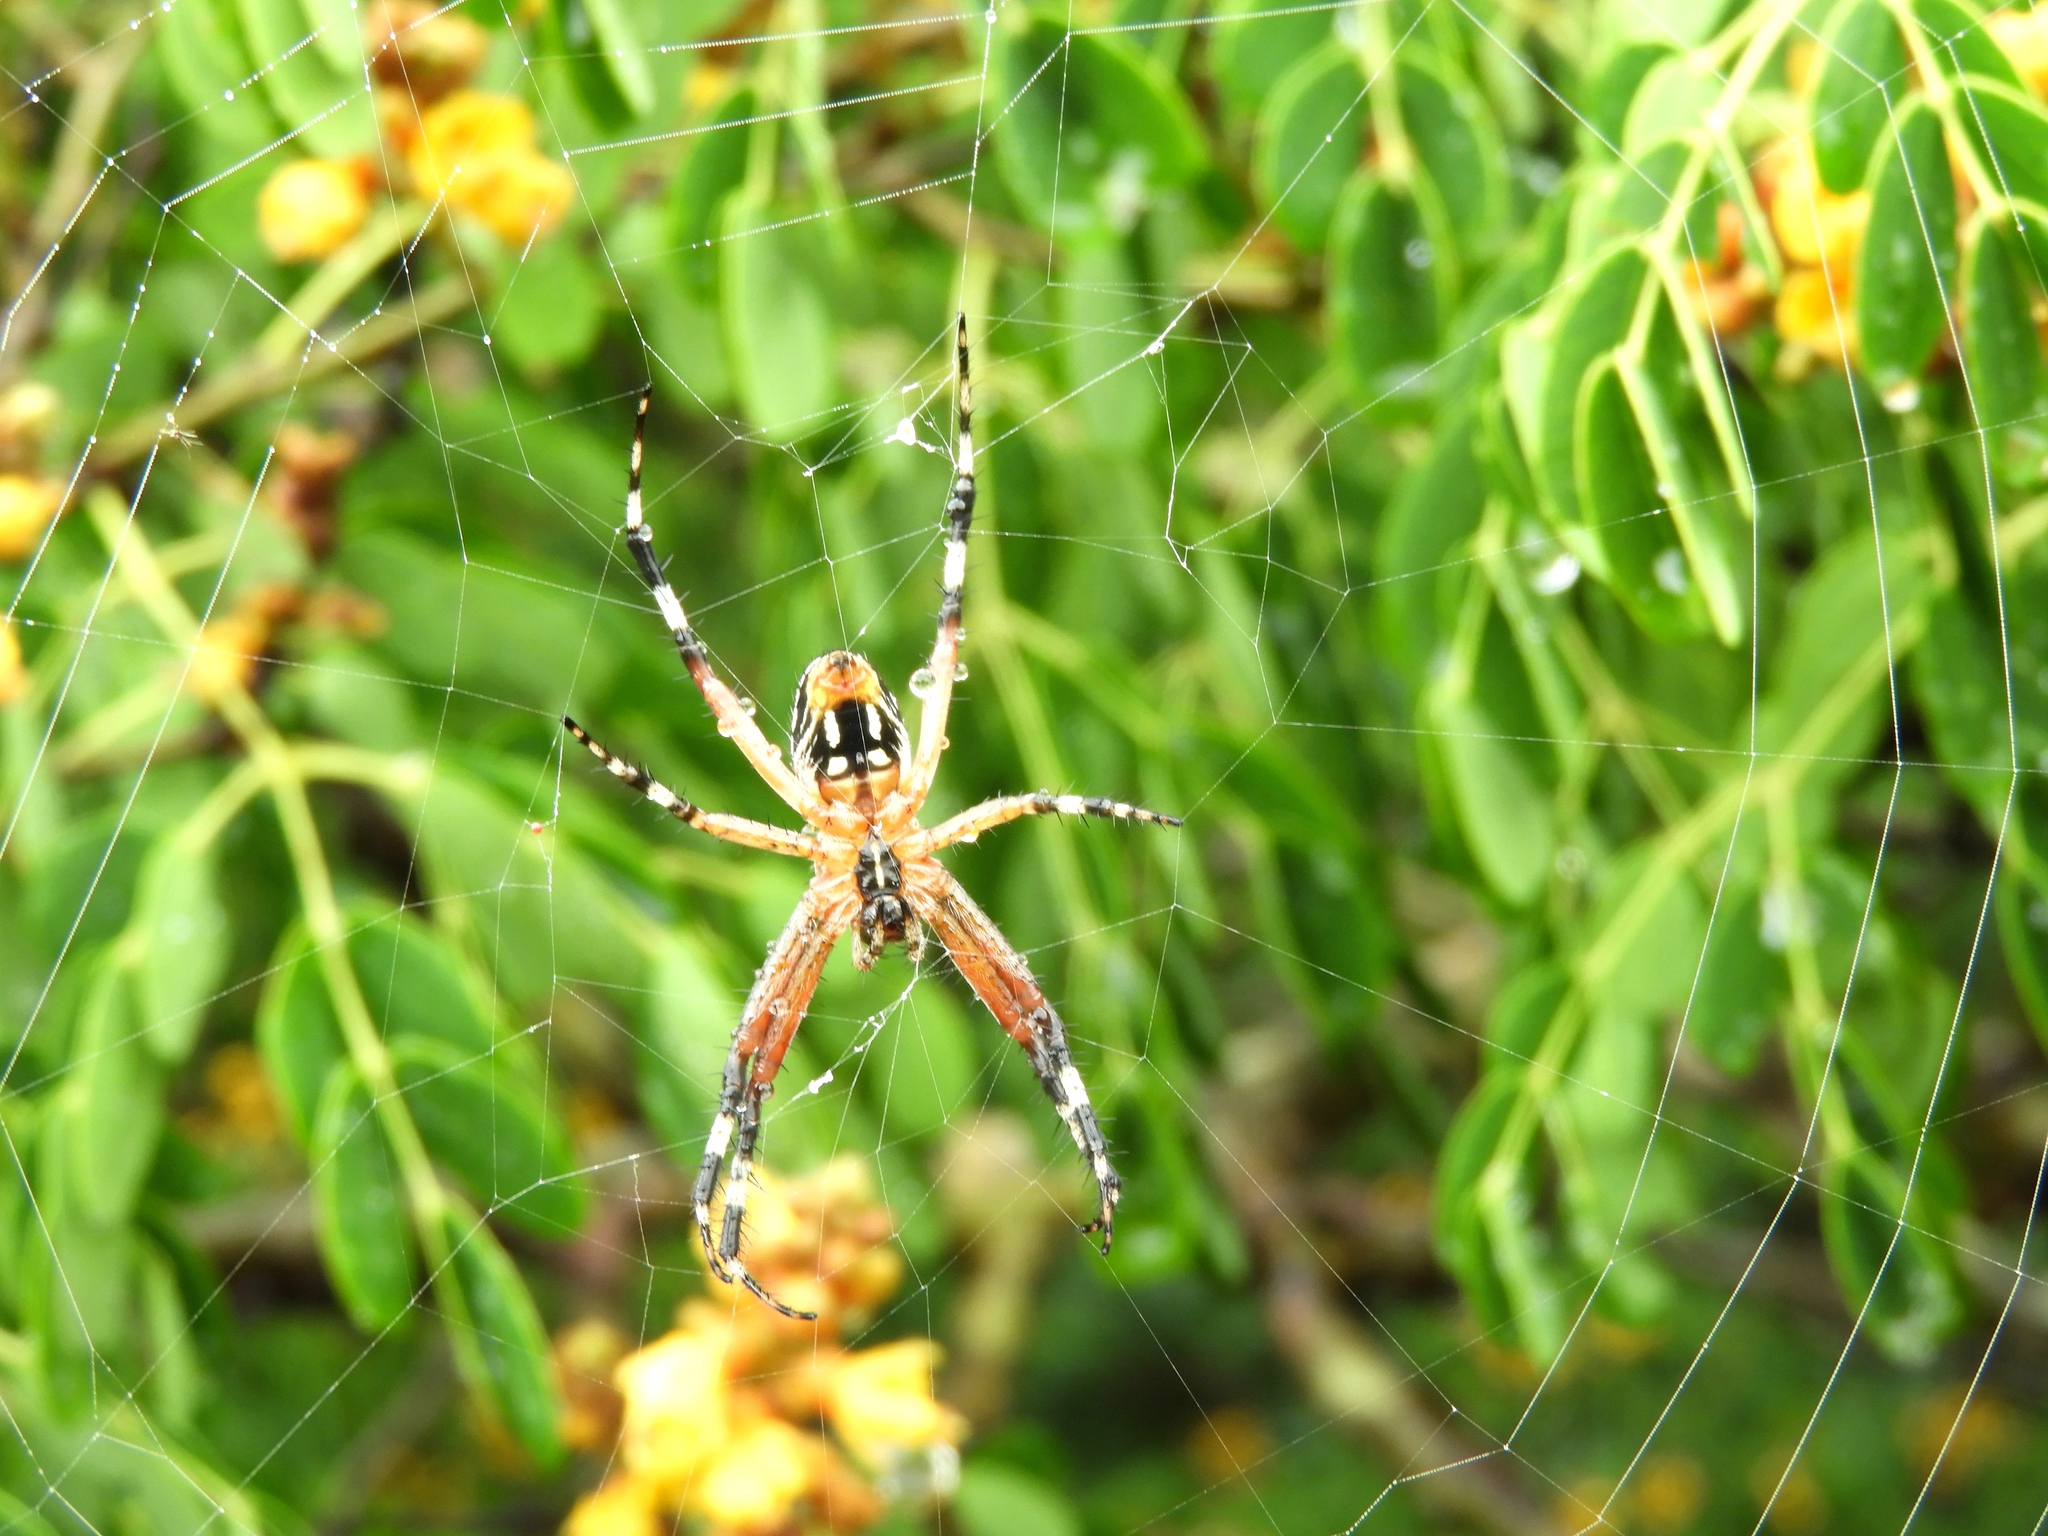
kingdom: Animalia
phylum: Arthropoda
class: Arachnida
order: Araneae
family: Araneidae
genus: Neoscona
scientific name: Neoscona
